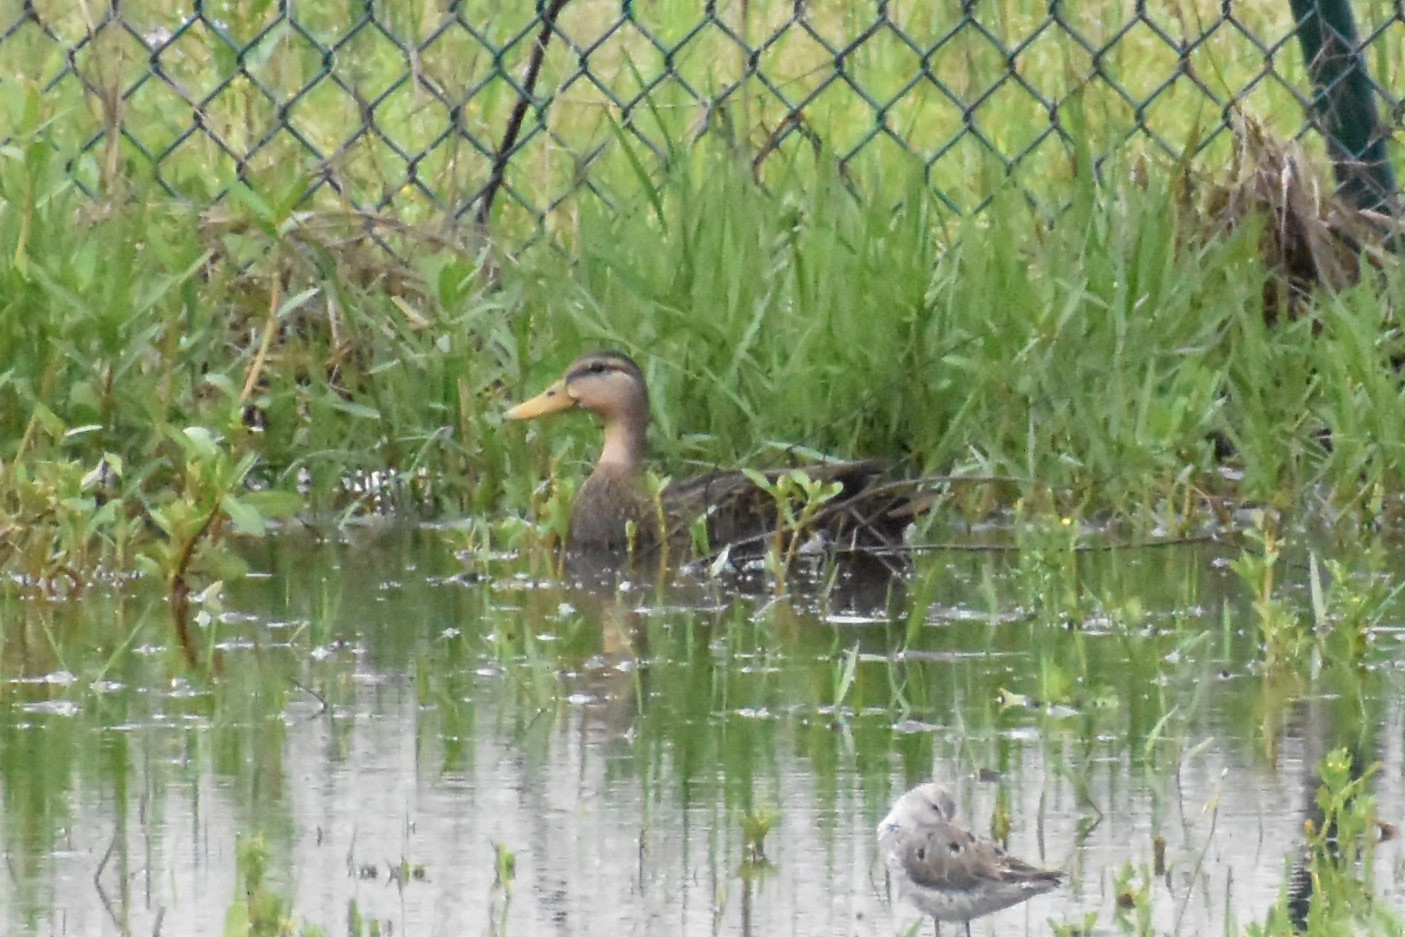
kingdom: Animalia
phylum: Chordata
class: Aves
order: Anseriformes
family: Anatidae
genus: Anas
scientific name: Anas fulvigula
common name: Mottled duck
